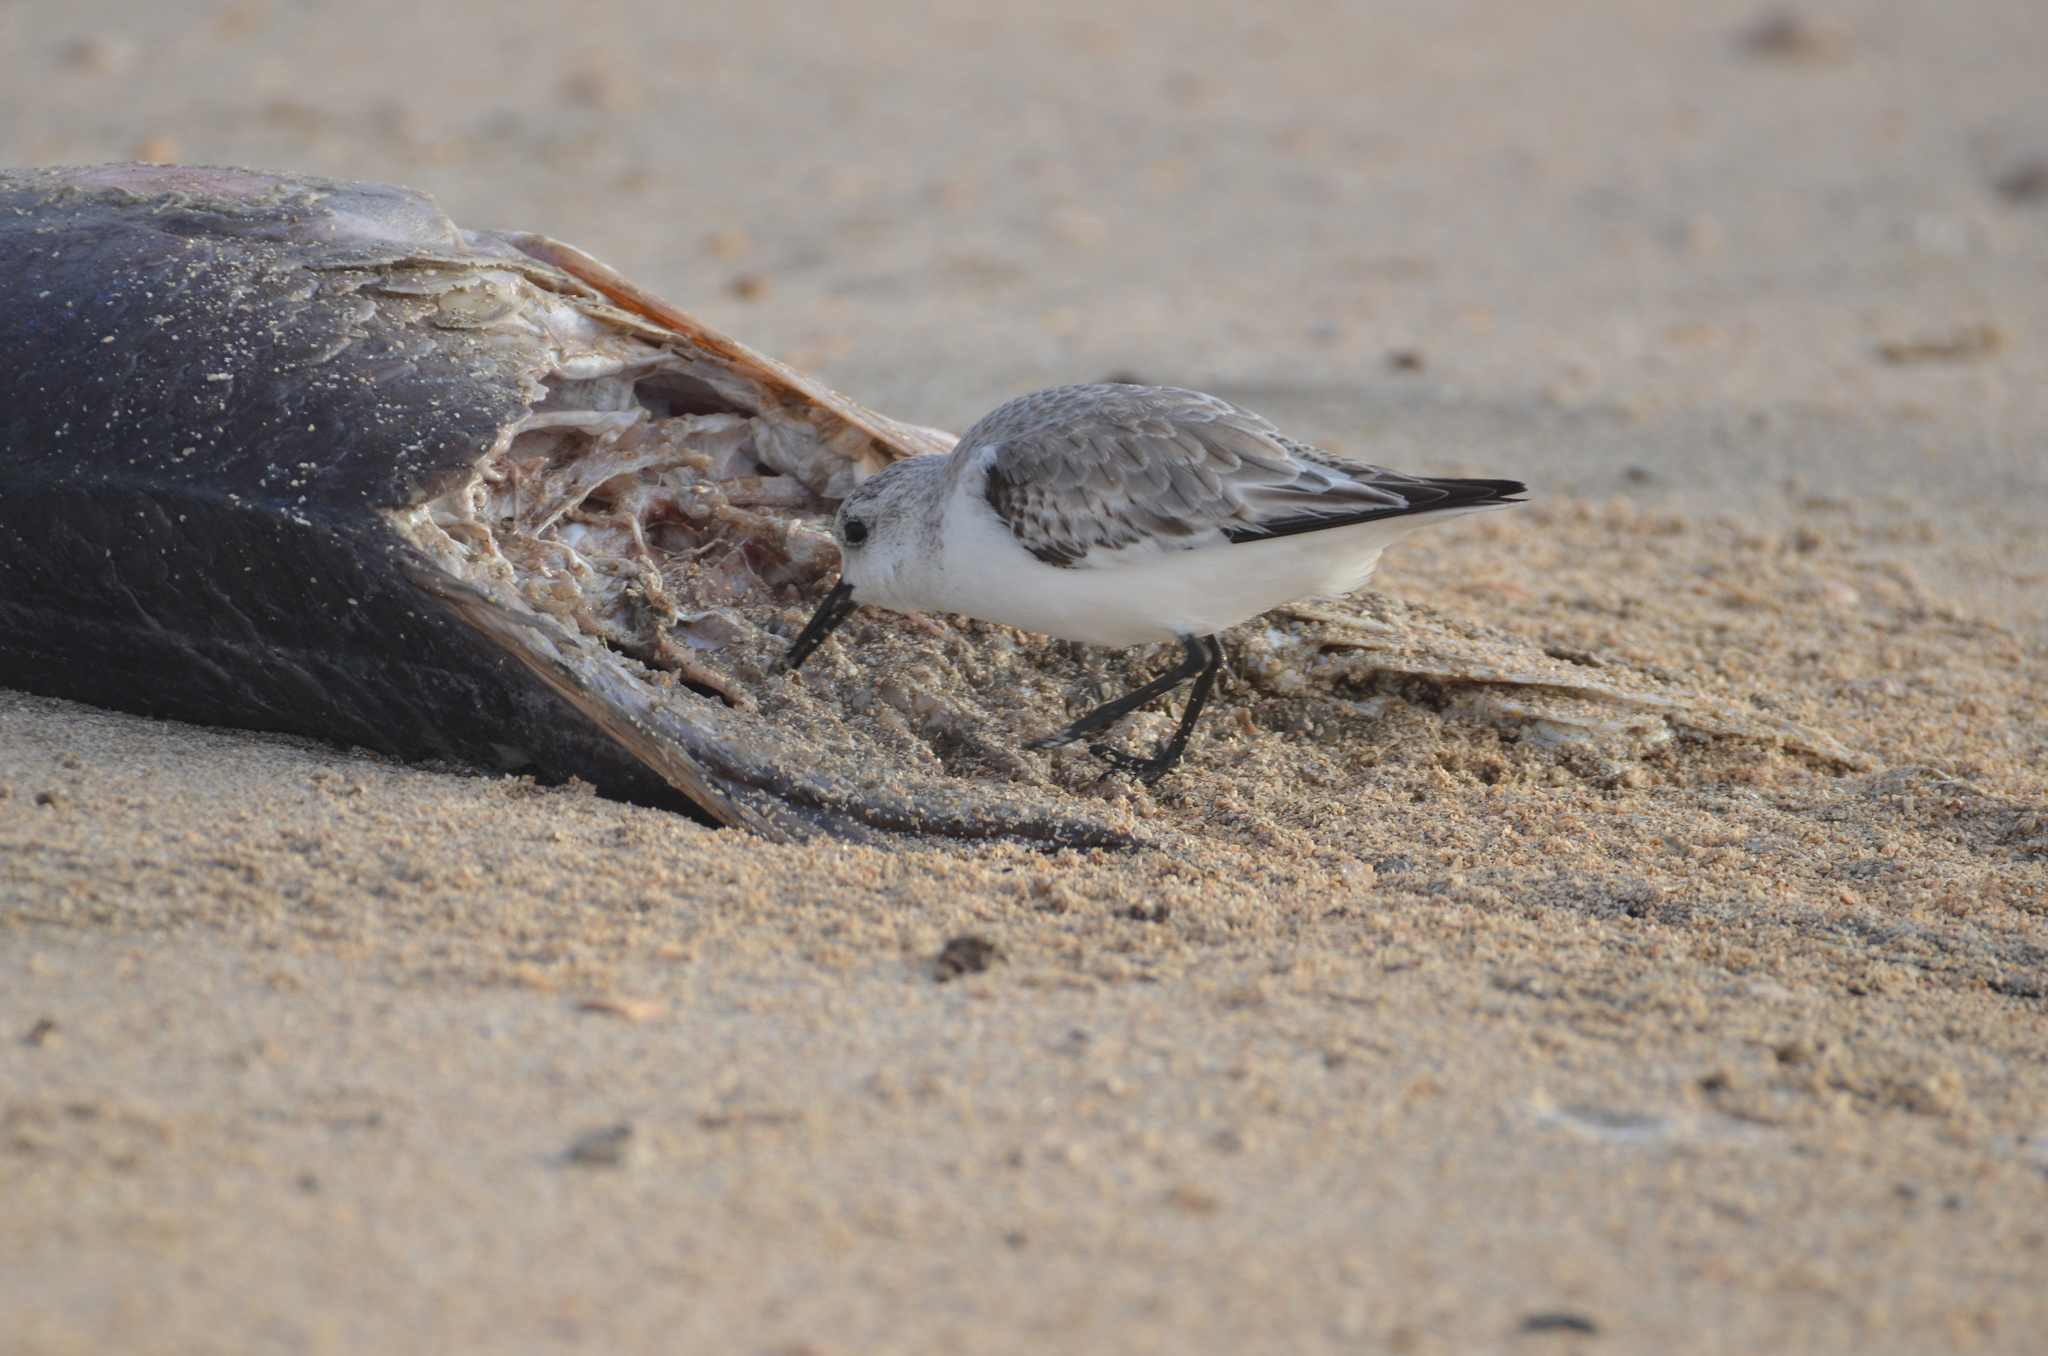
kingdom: Animalia
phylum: Chordata
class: Aves
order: Charadriiformes
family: Scolopacidae
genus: Calidris
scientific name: Calidris alba
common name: Sanderling
